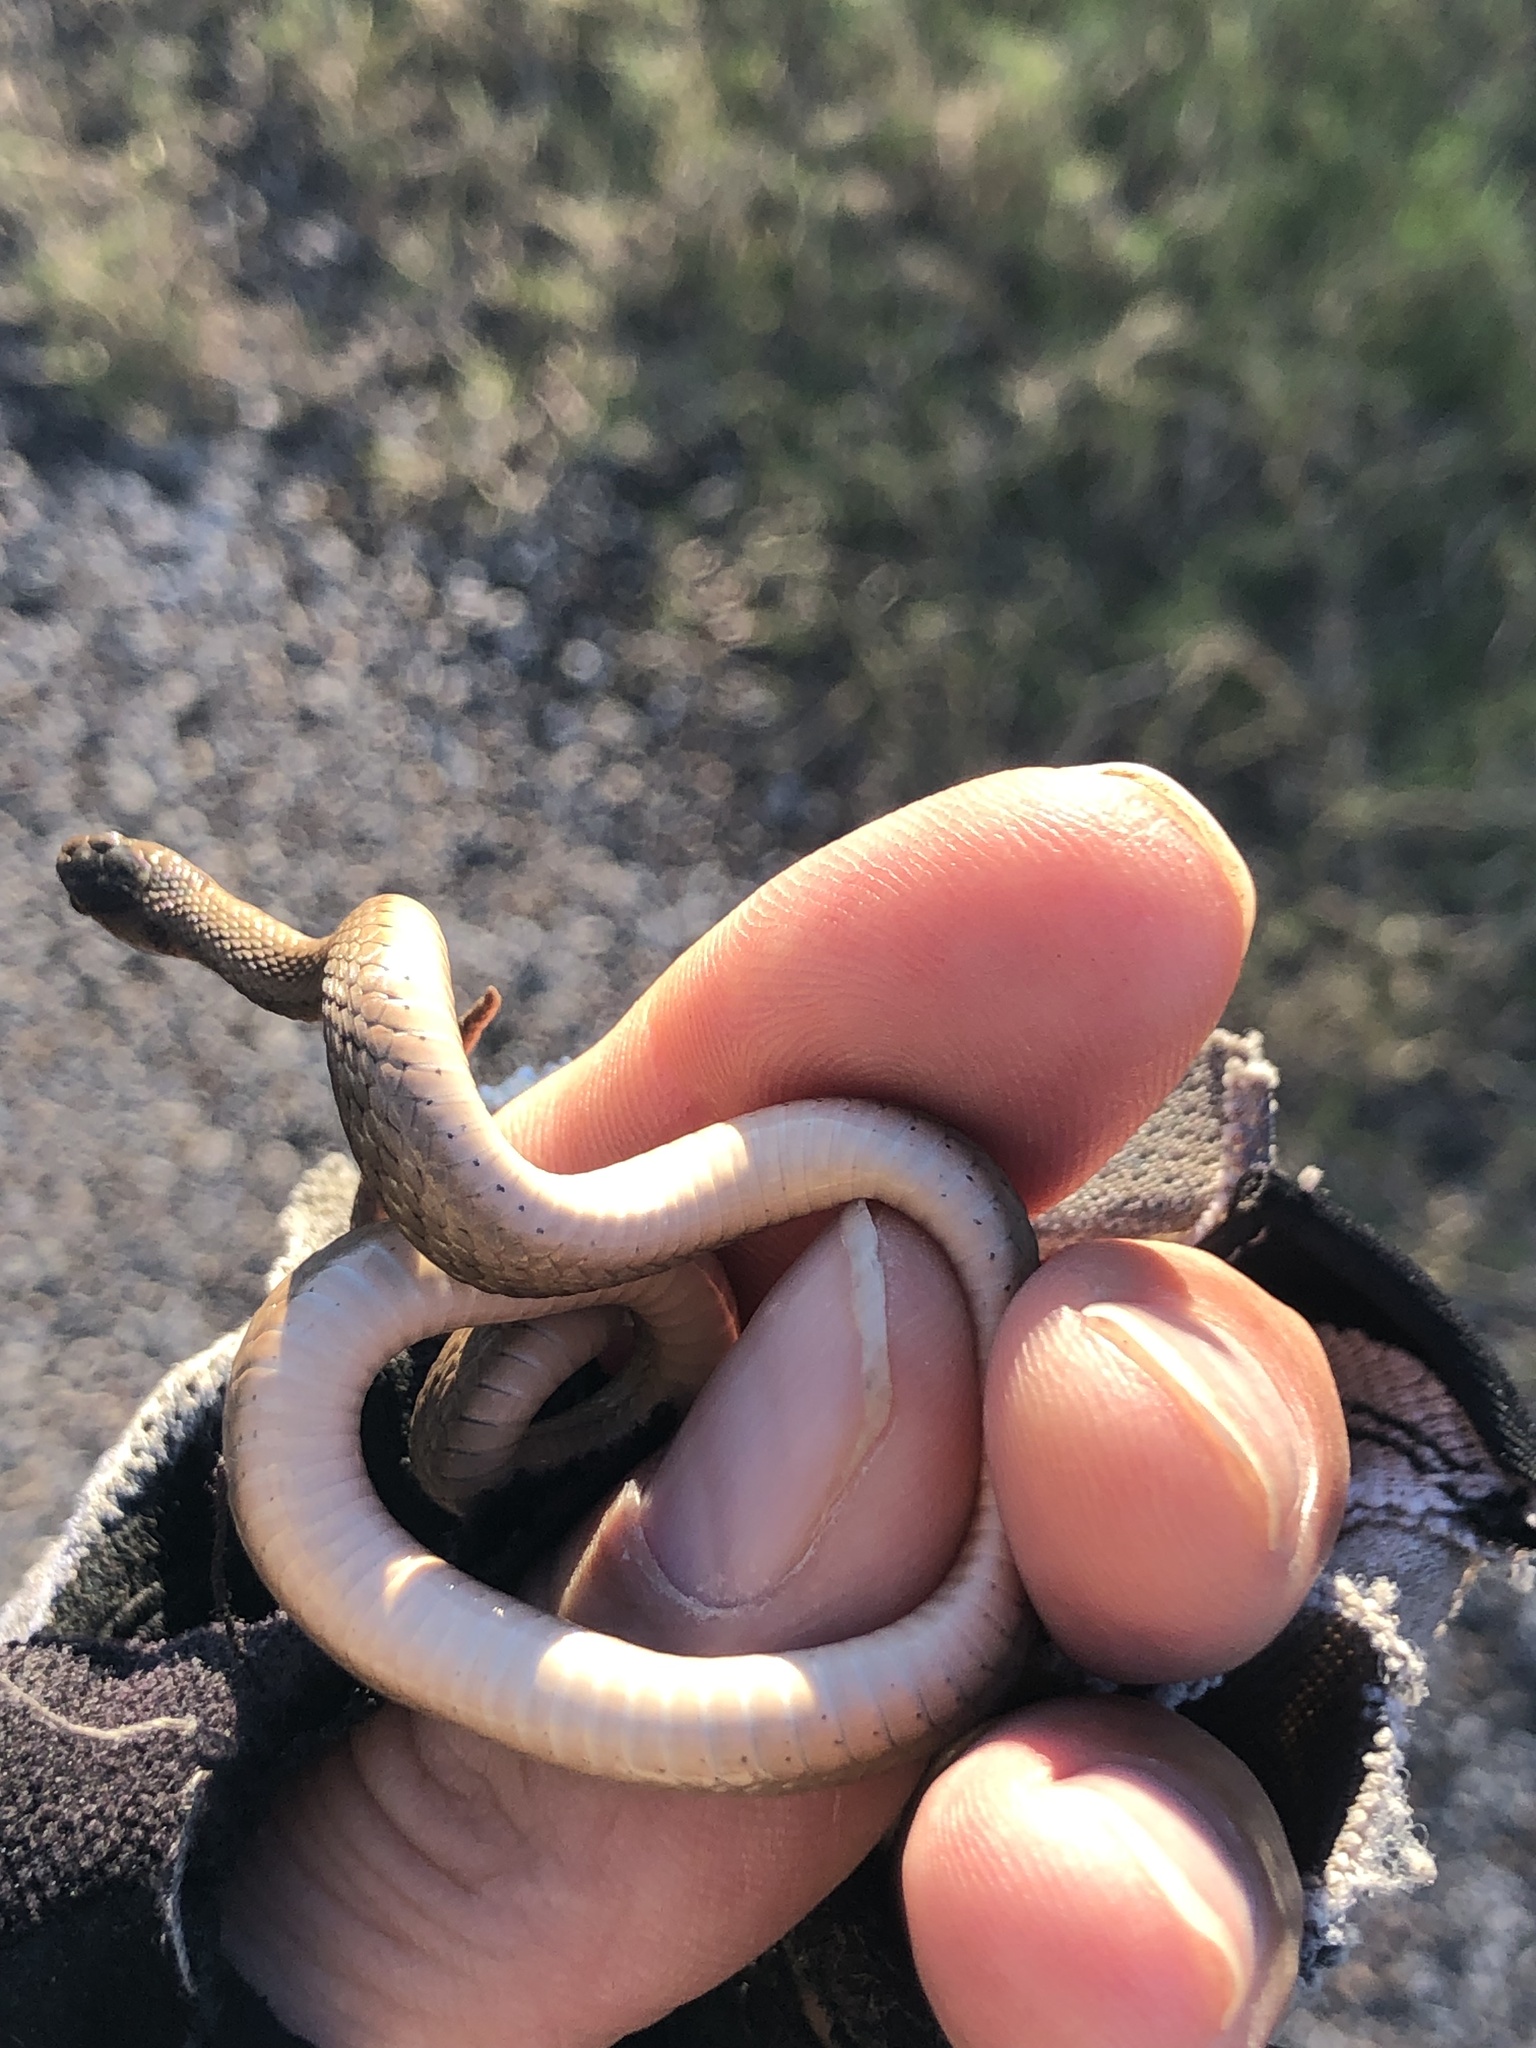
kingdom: Animalia
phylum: Chordata
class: Squamata
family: Colubridae
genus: Storeria
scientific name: Storeria dekayi
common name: (dekay’s) brown snake
